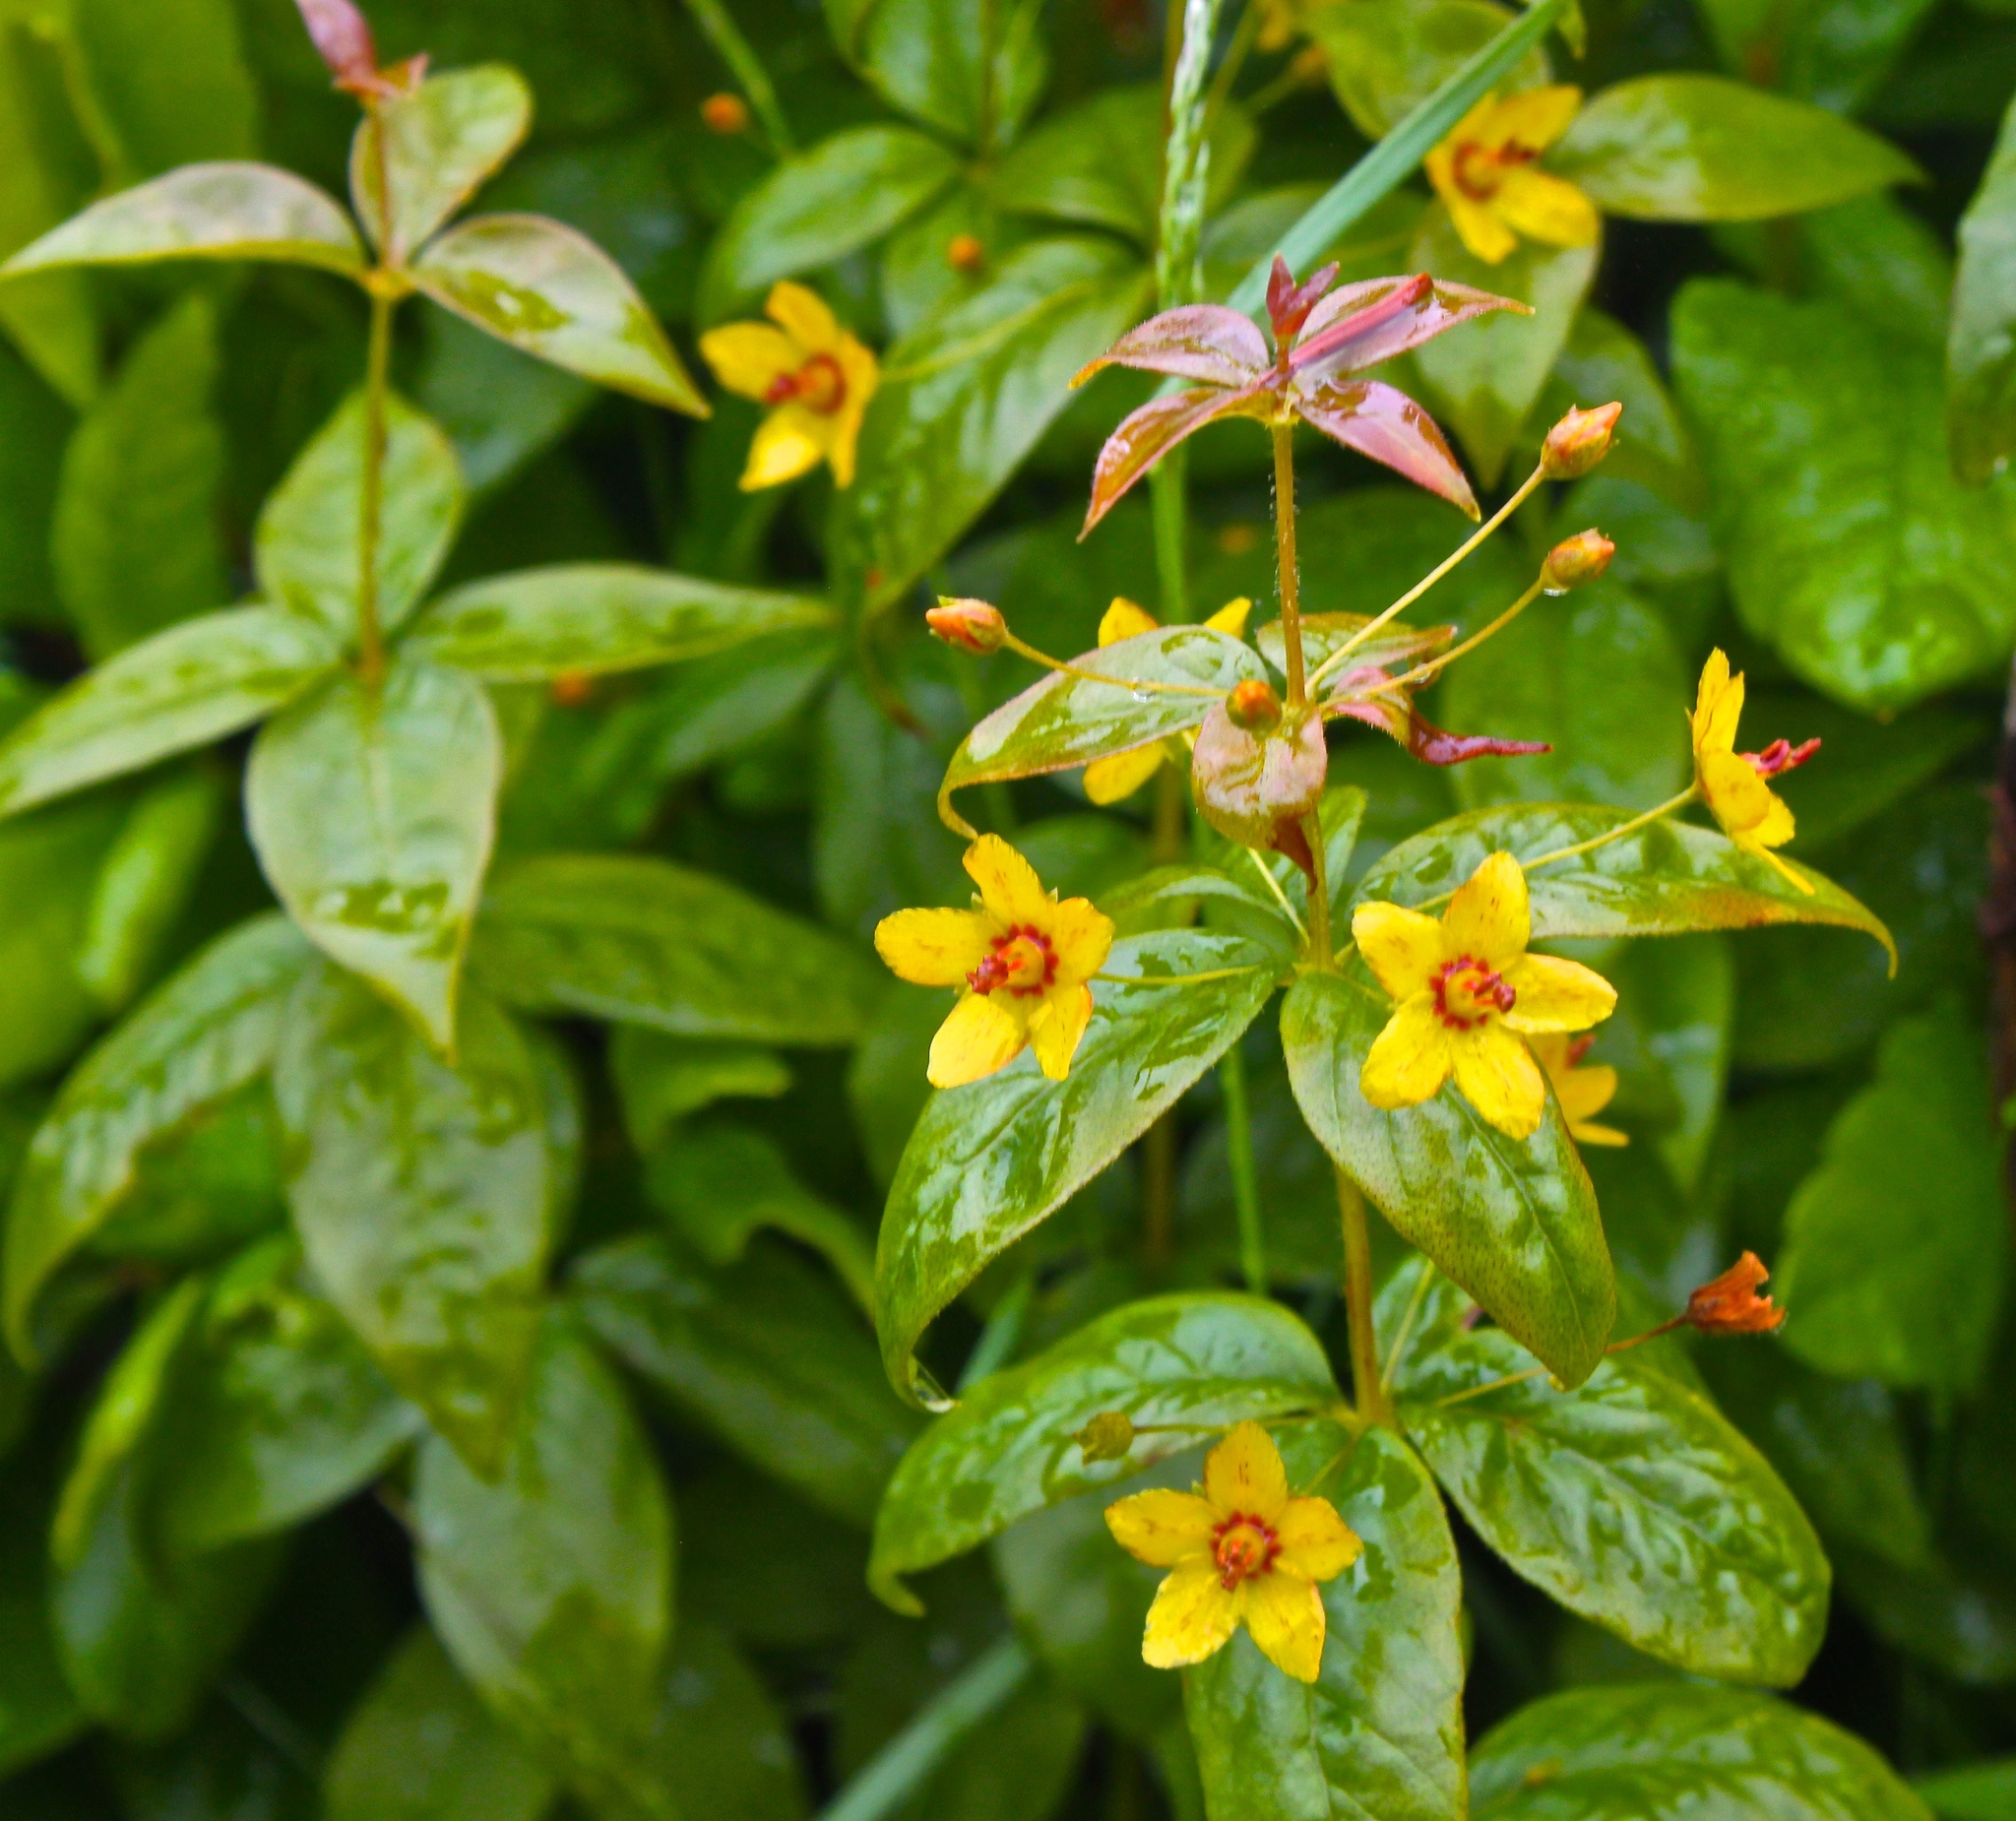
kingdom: Plantae
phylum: Tracheophyta
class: Magnoliopsida
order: Ericales
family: Primulaceae
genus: Lysimachia
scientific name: Lysimachia quadrifolia
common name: Whorled loosestrife
